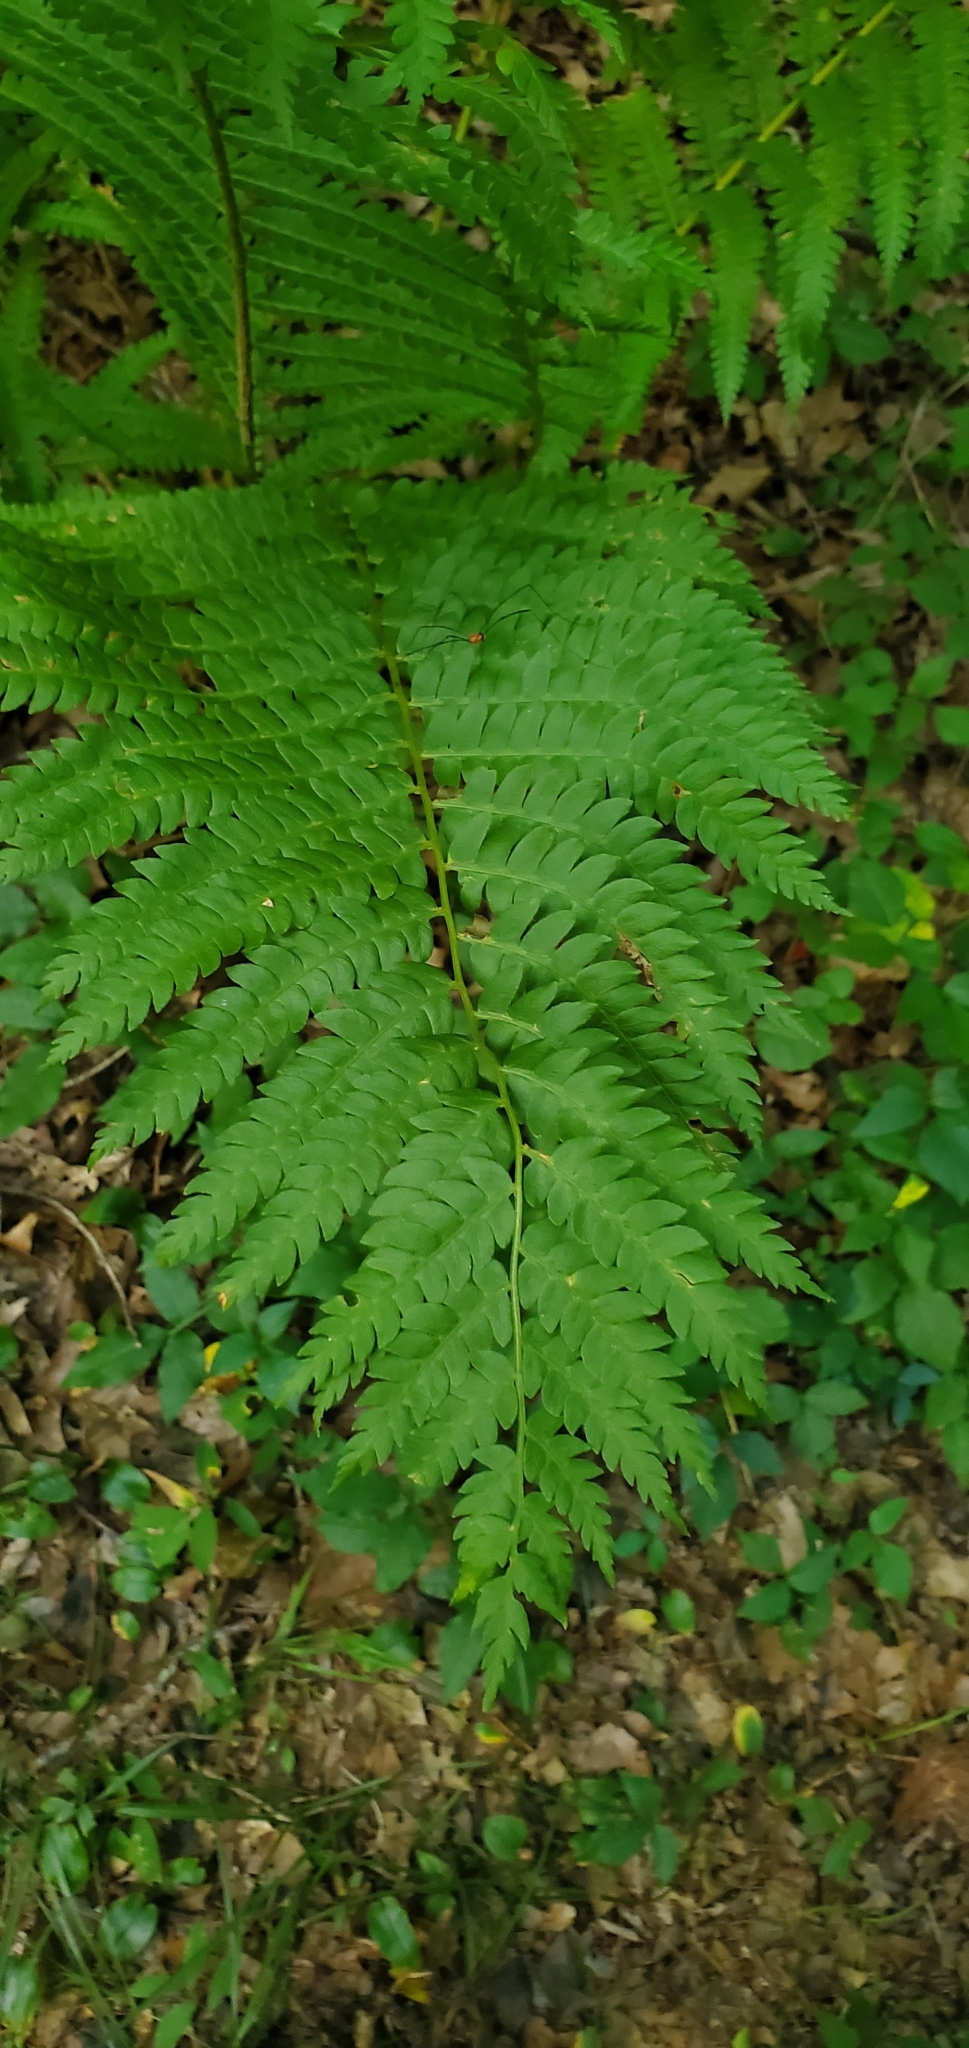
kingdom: Plantae
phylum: Tracheophyta
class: Polypodiopsida
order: Osmundales
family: Osmundaceae
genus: Osmundastrum
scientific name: Osmundastrum cinnamomeum
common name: Cinnamon fern
